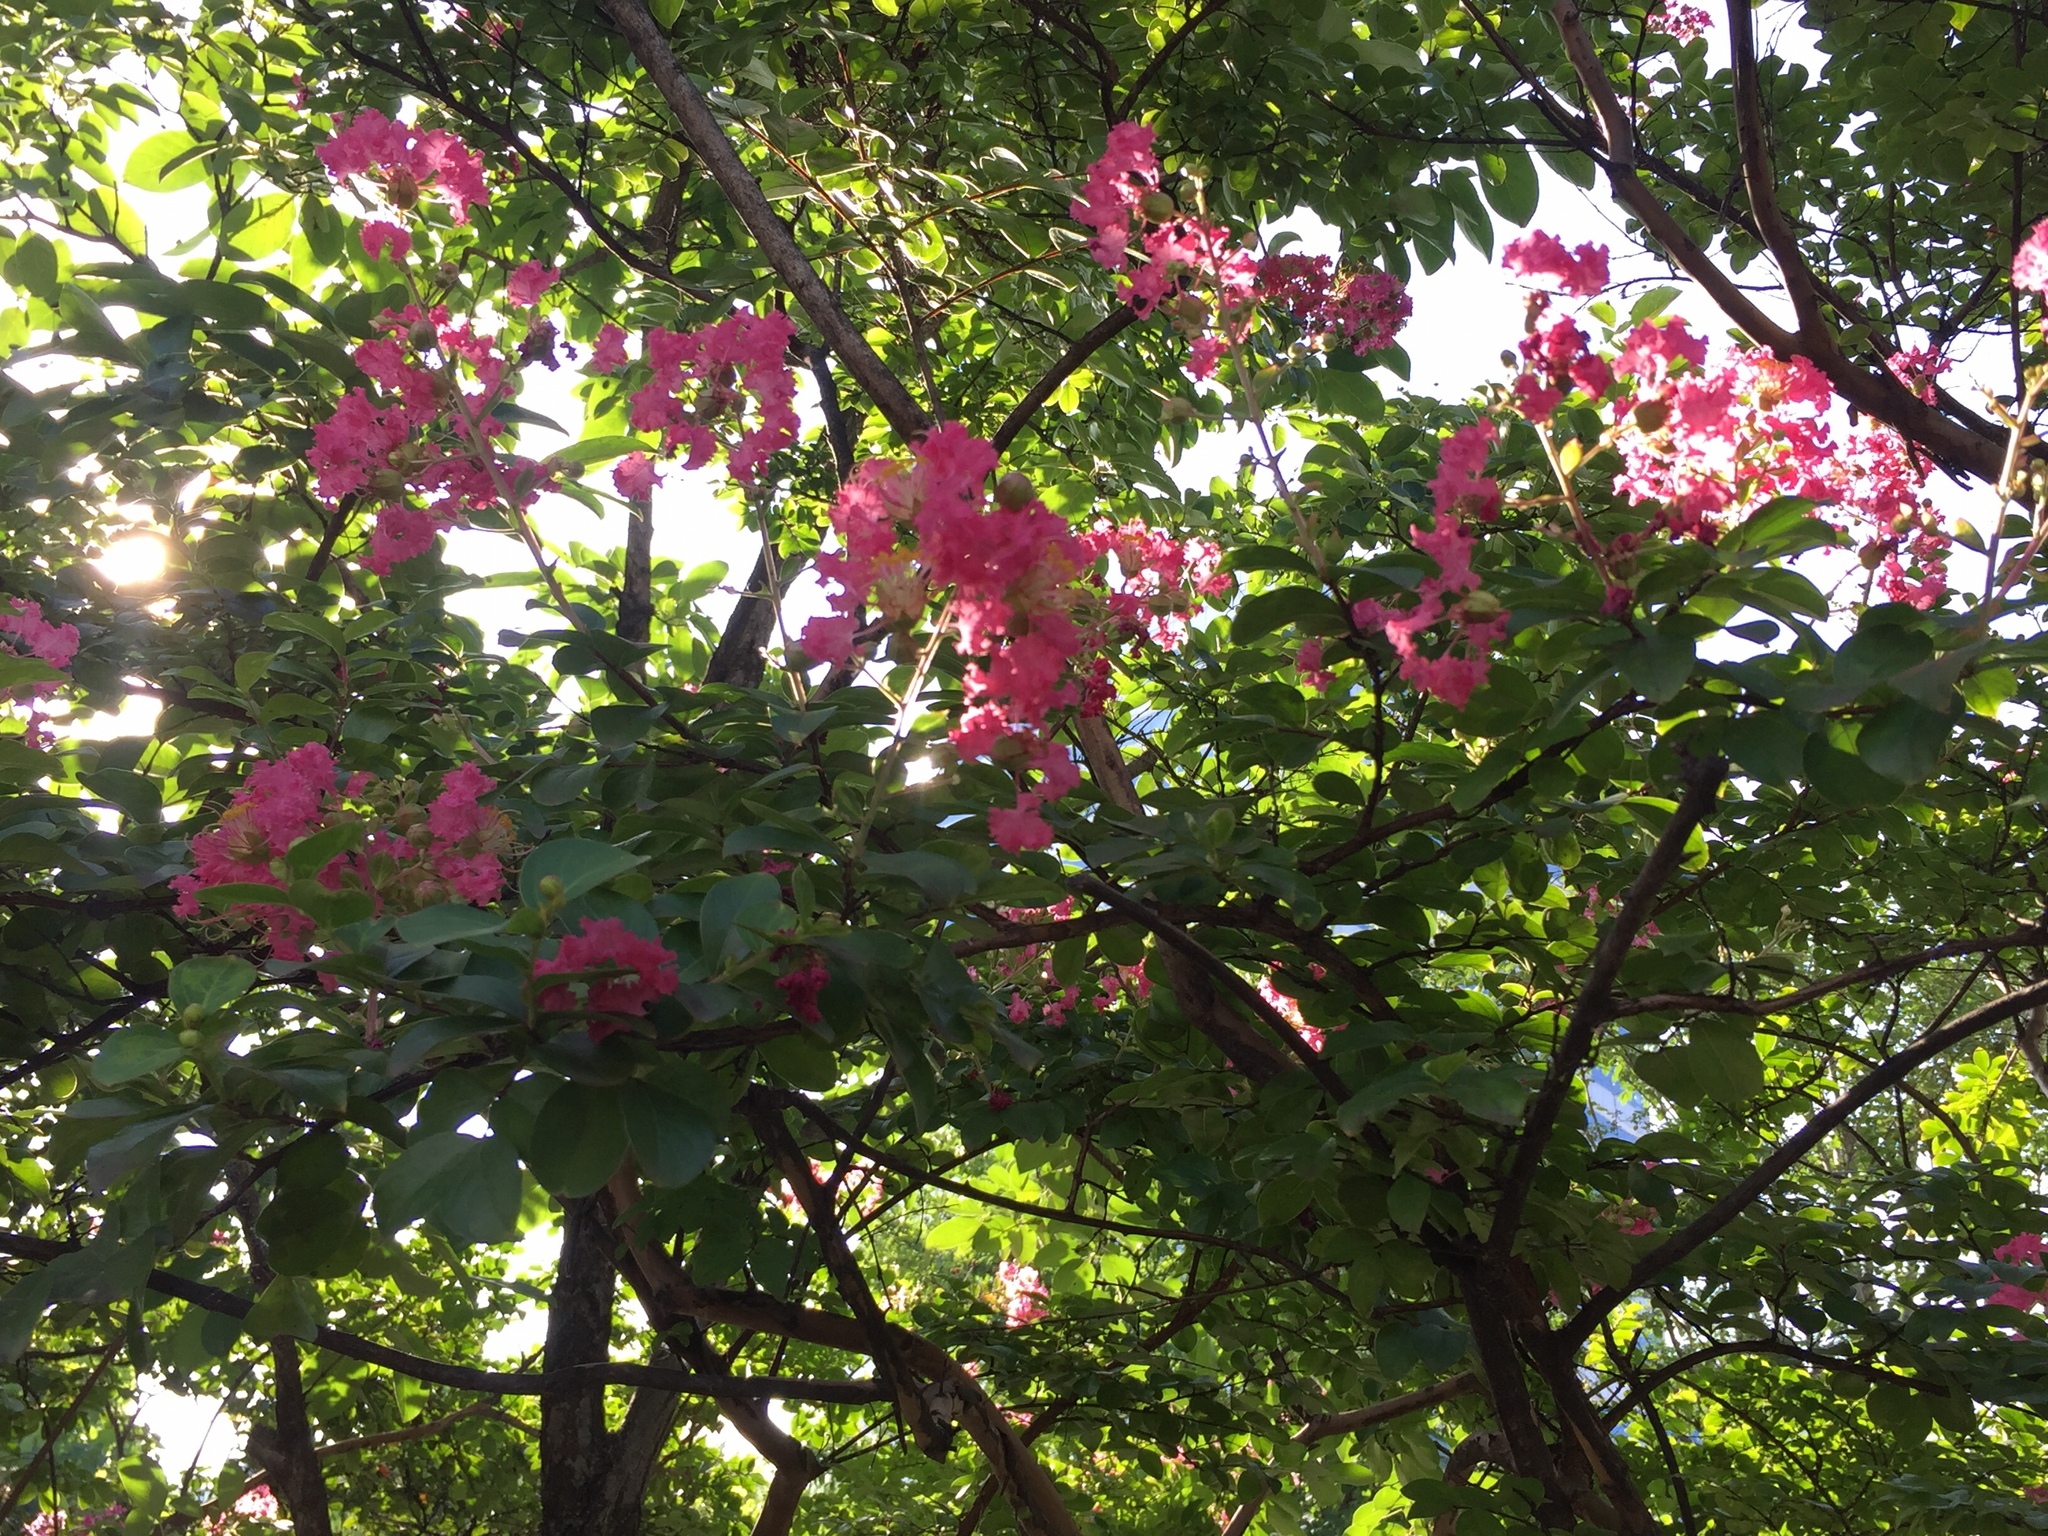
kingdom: Plantae
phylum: Tracheophyta
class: Magnoliopsida
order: Myrtales
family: Lythraceae
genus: Lagerstroemia
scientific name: Lagerstroemia indica
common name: Crape-myrtle
